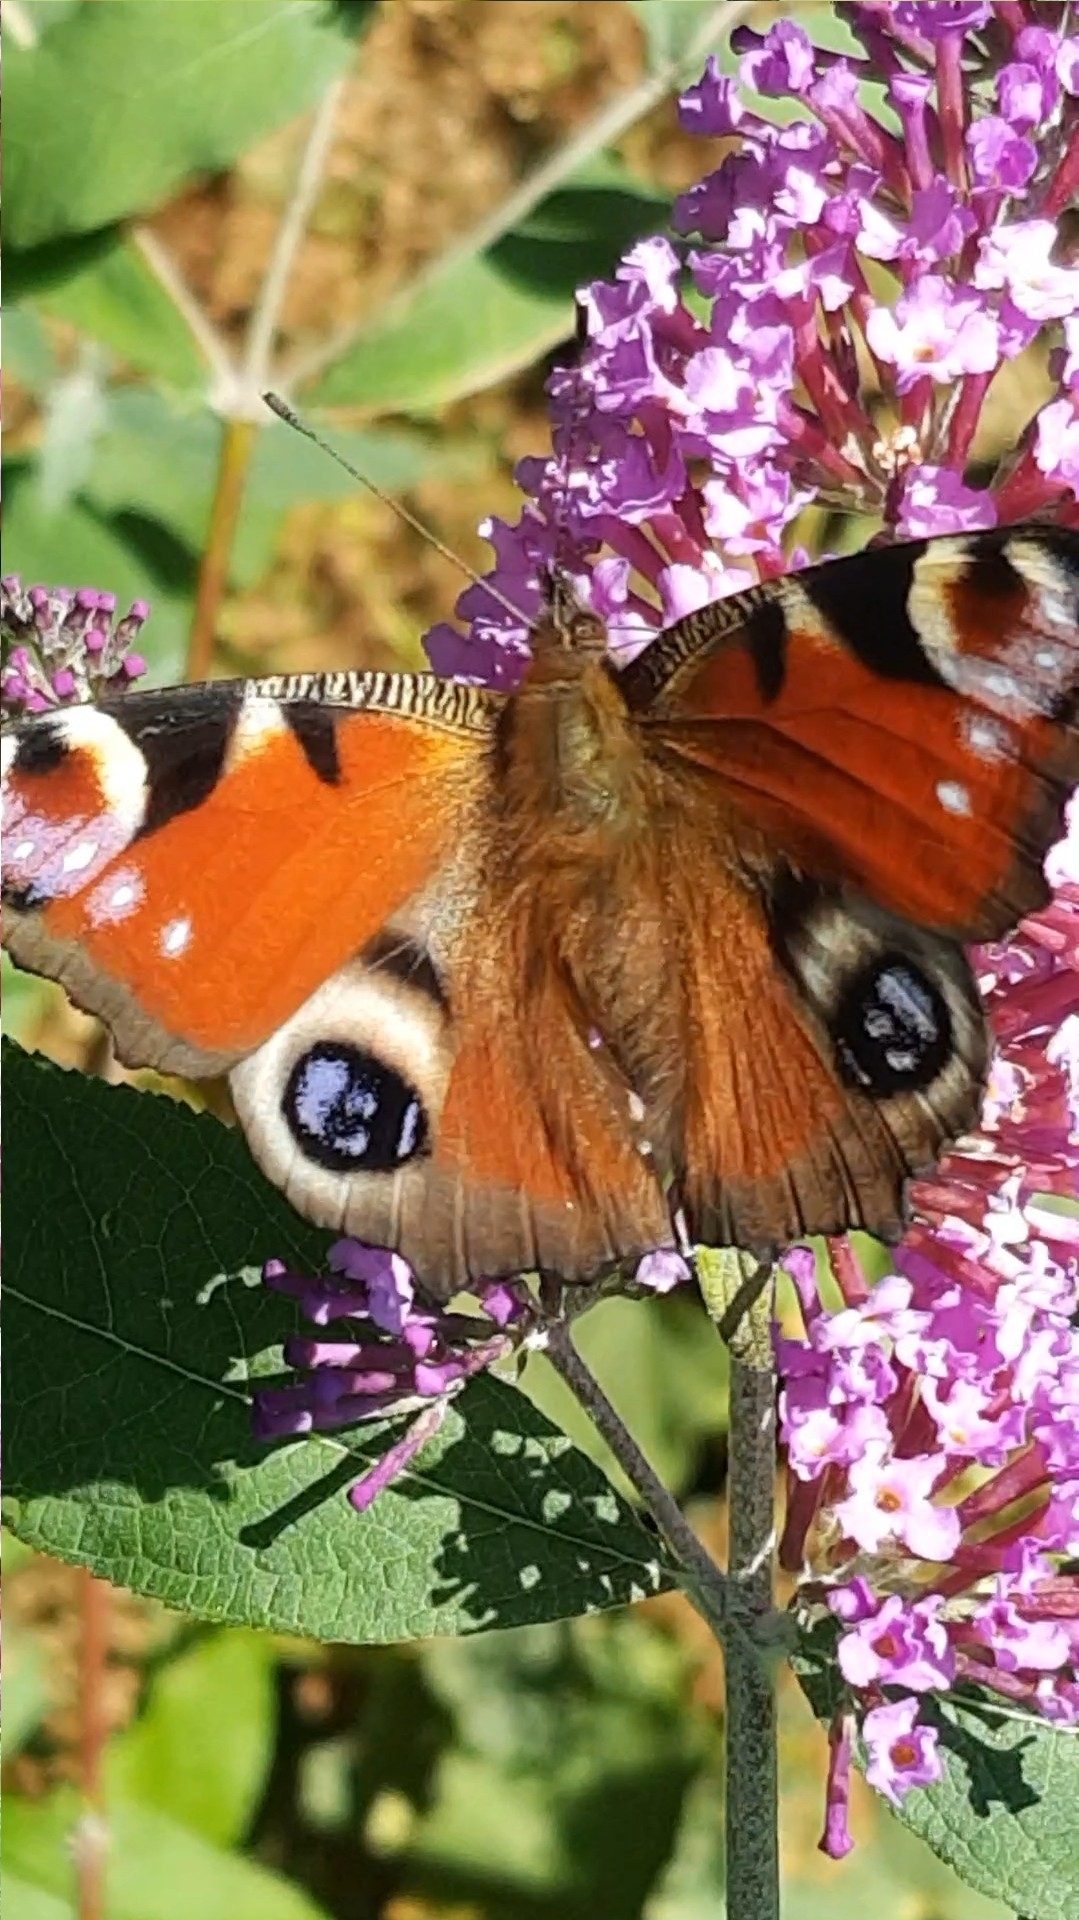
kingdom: Animalia
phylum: Arthropoda
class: Insecta
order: Lepidoptera
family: Nymphalidae
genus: Aglais
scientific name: Aglais io
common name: Peacock
